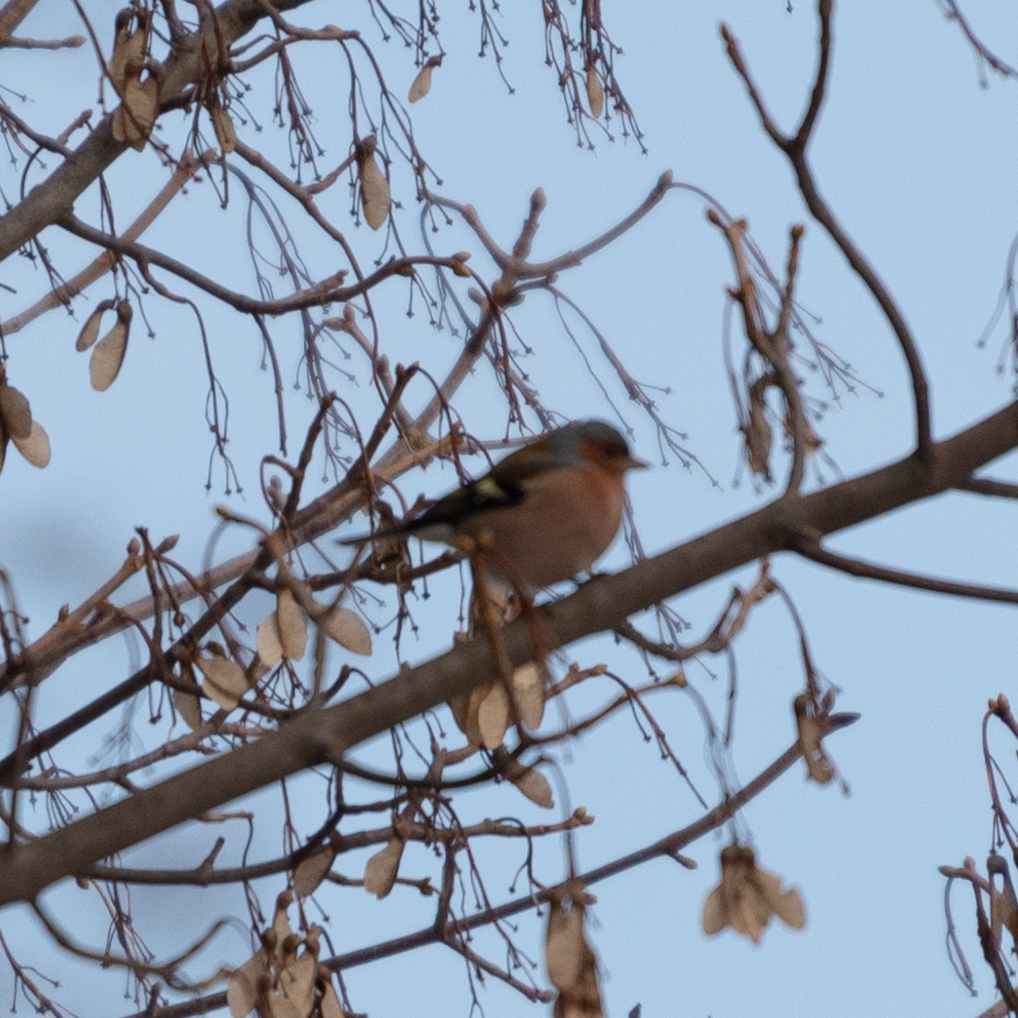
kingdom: Animalia
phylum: Chordata
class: Aves
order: Passeriformes
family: Fringillidae
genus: Fringilla
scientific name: Fringilla coelebs
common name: Common chaffinch
